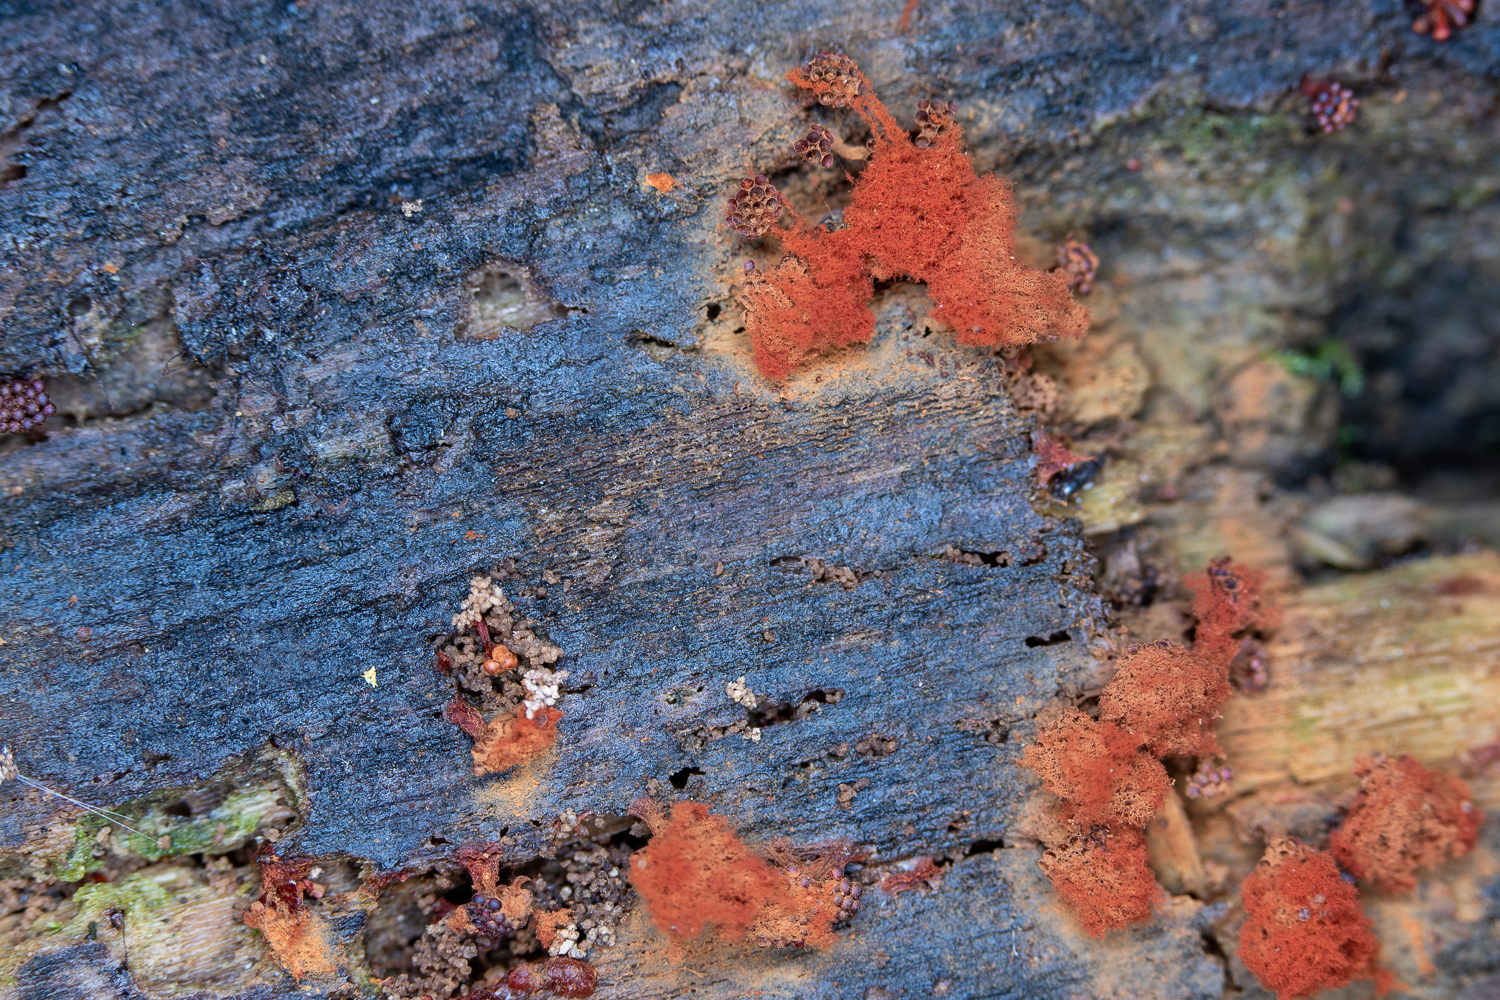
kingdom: Protozoa
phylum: Mycetozoa
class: Myxomycetes
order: Trichiales
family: Trichiaceae
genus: Metatrichia
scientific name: Metatrichia vesparia
